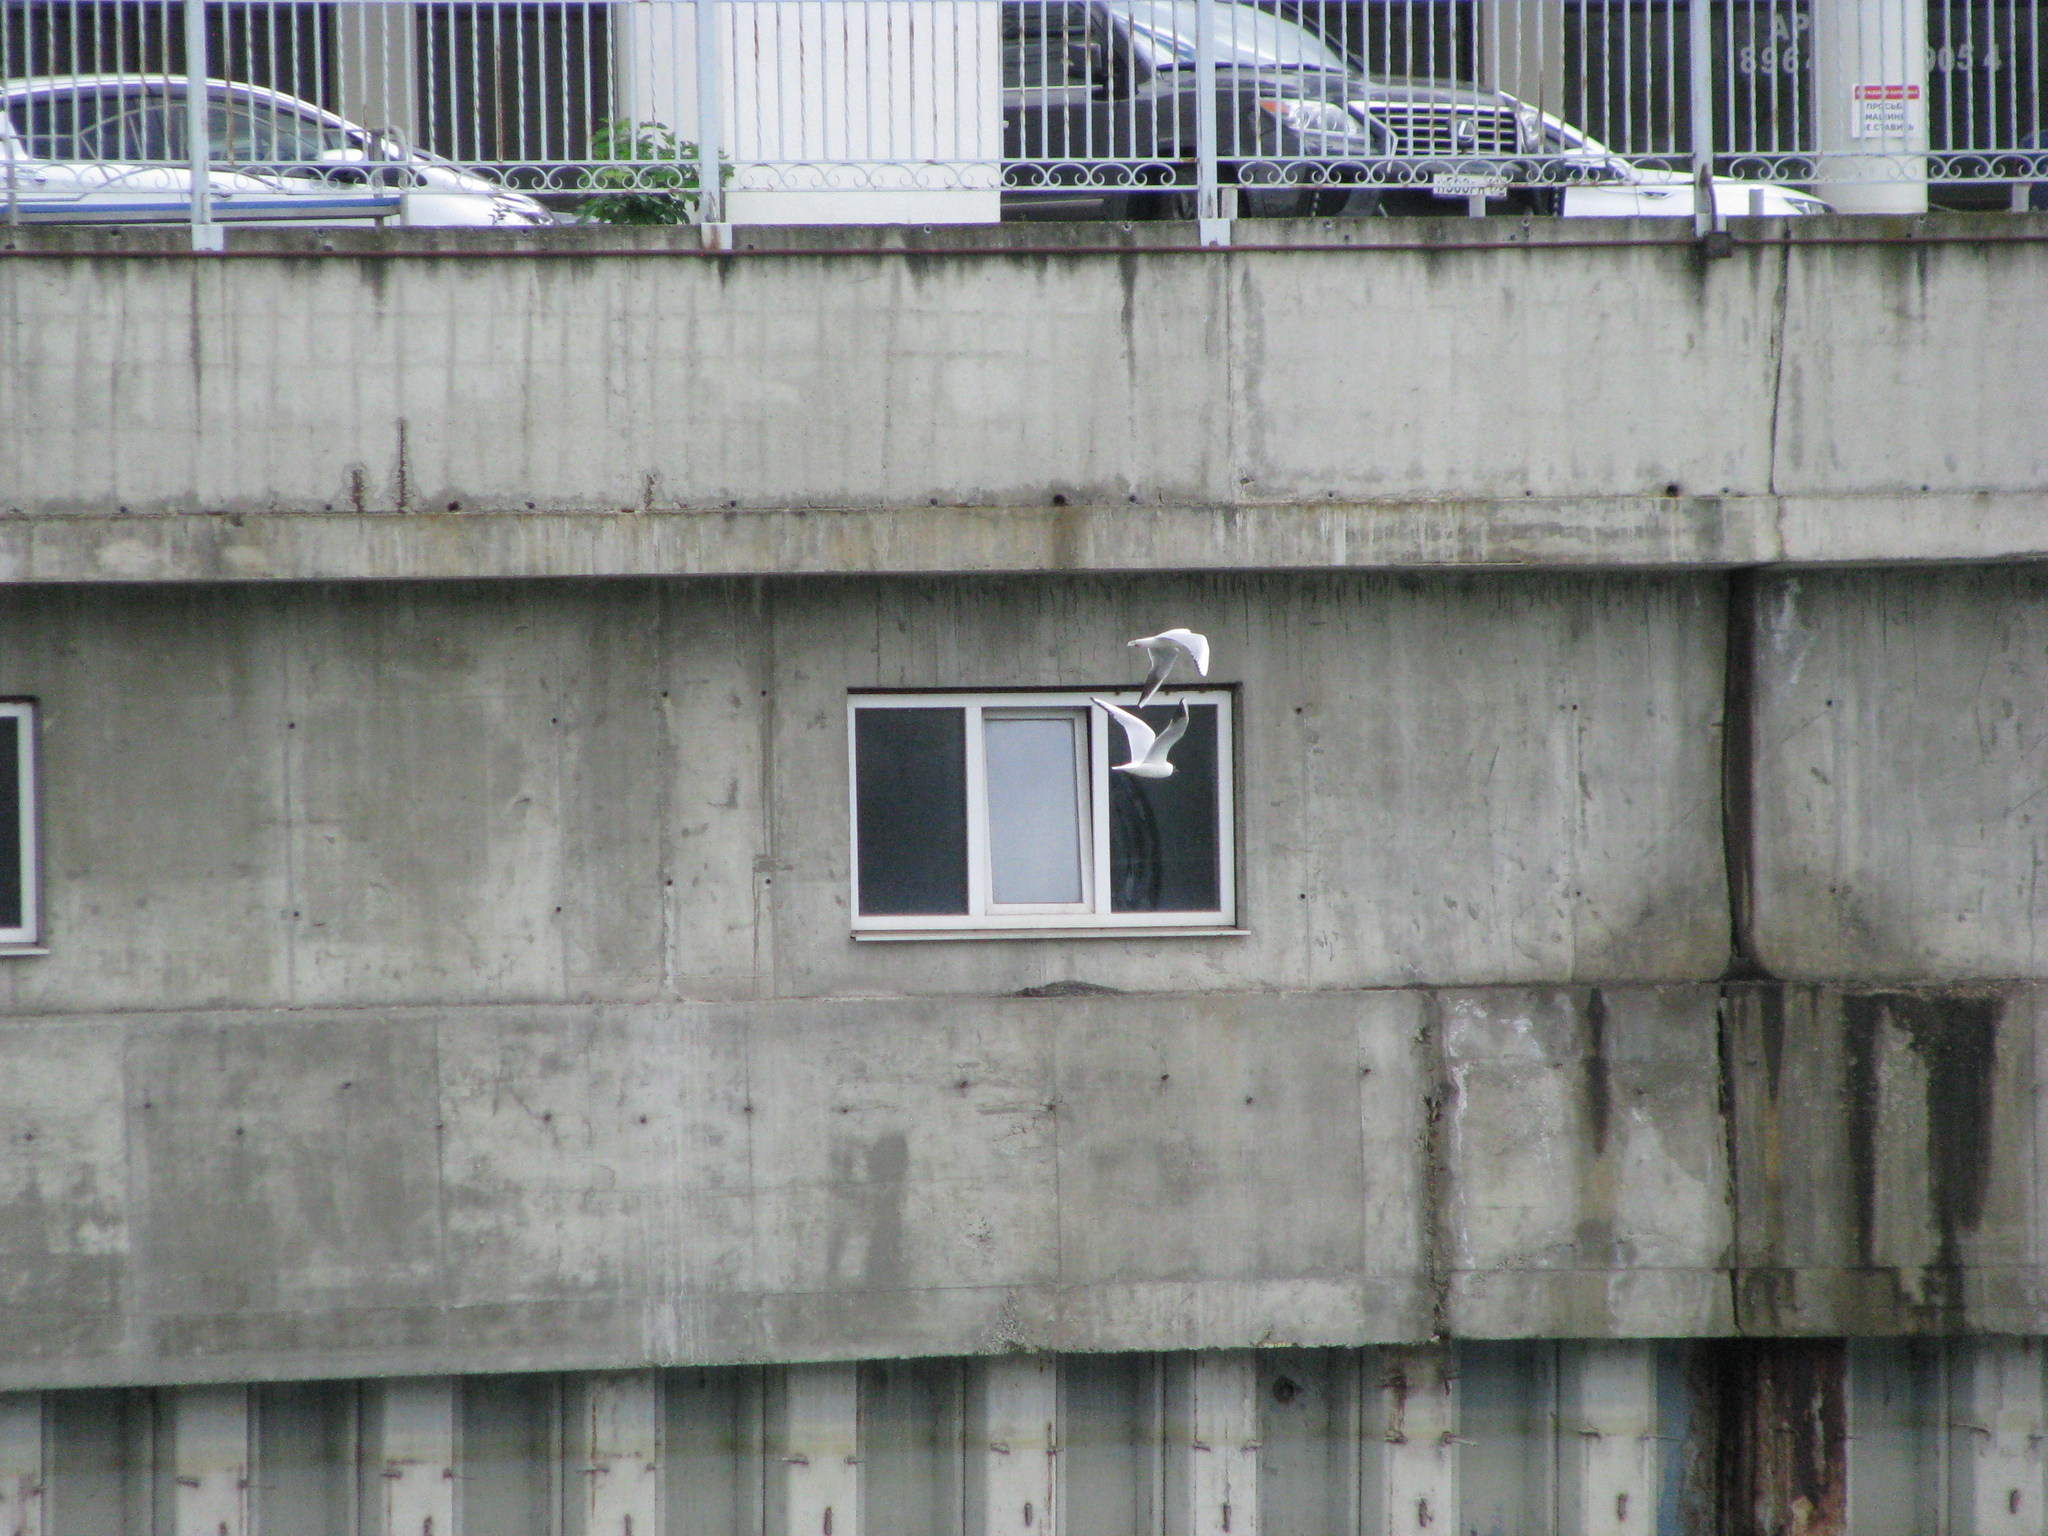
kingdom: Animalia
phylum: Chordata
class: Aves
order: Charadriiformes
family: Laridae
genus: Chroicocephalus
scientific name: Chroicocephalus ridibundus
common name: Black-headed gull
